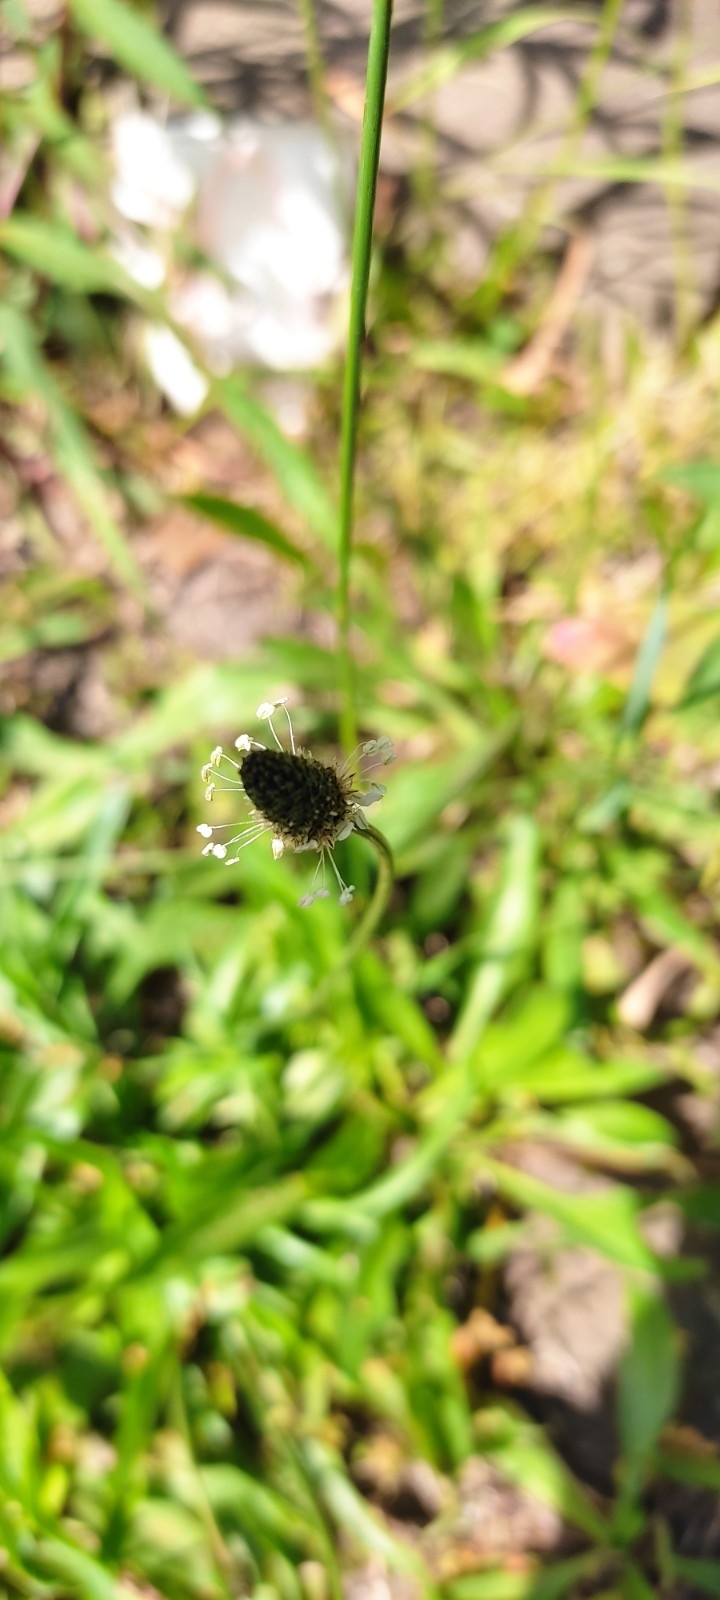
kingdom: Plantae
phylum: Tracheophyta
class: Magnoliopsida
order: Lamiales
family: Plantaginaceae
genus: Plantago
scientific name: Plantago lanceolata
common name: Ribwort plantain
